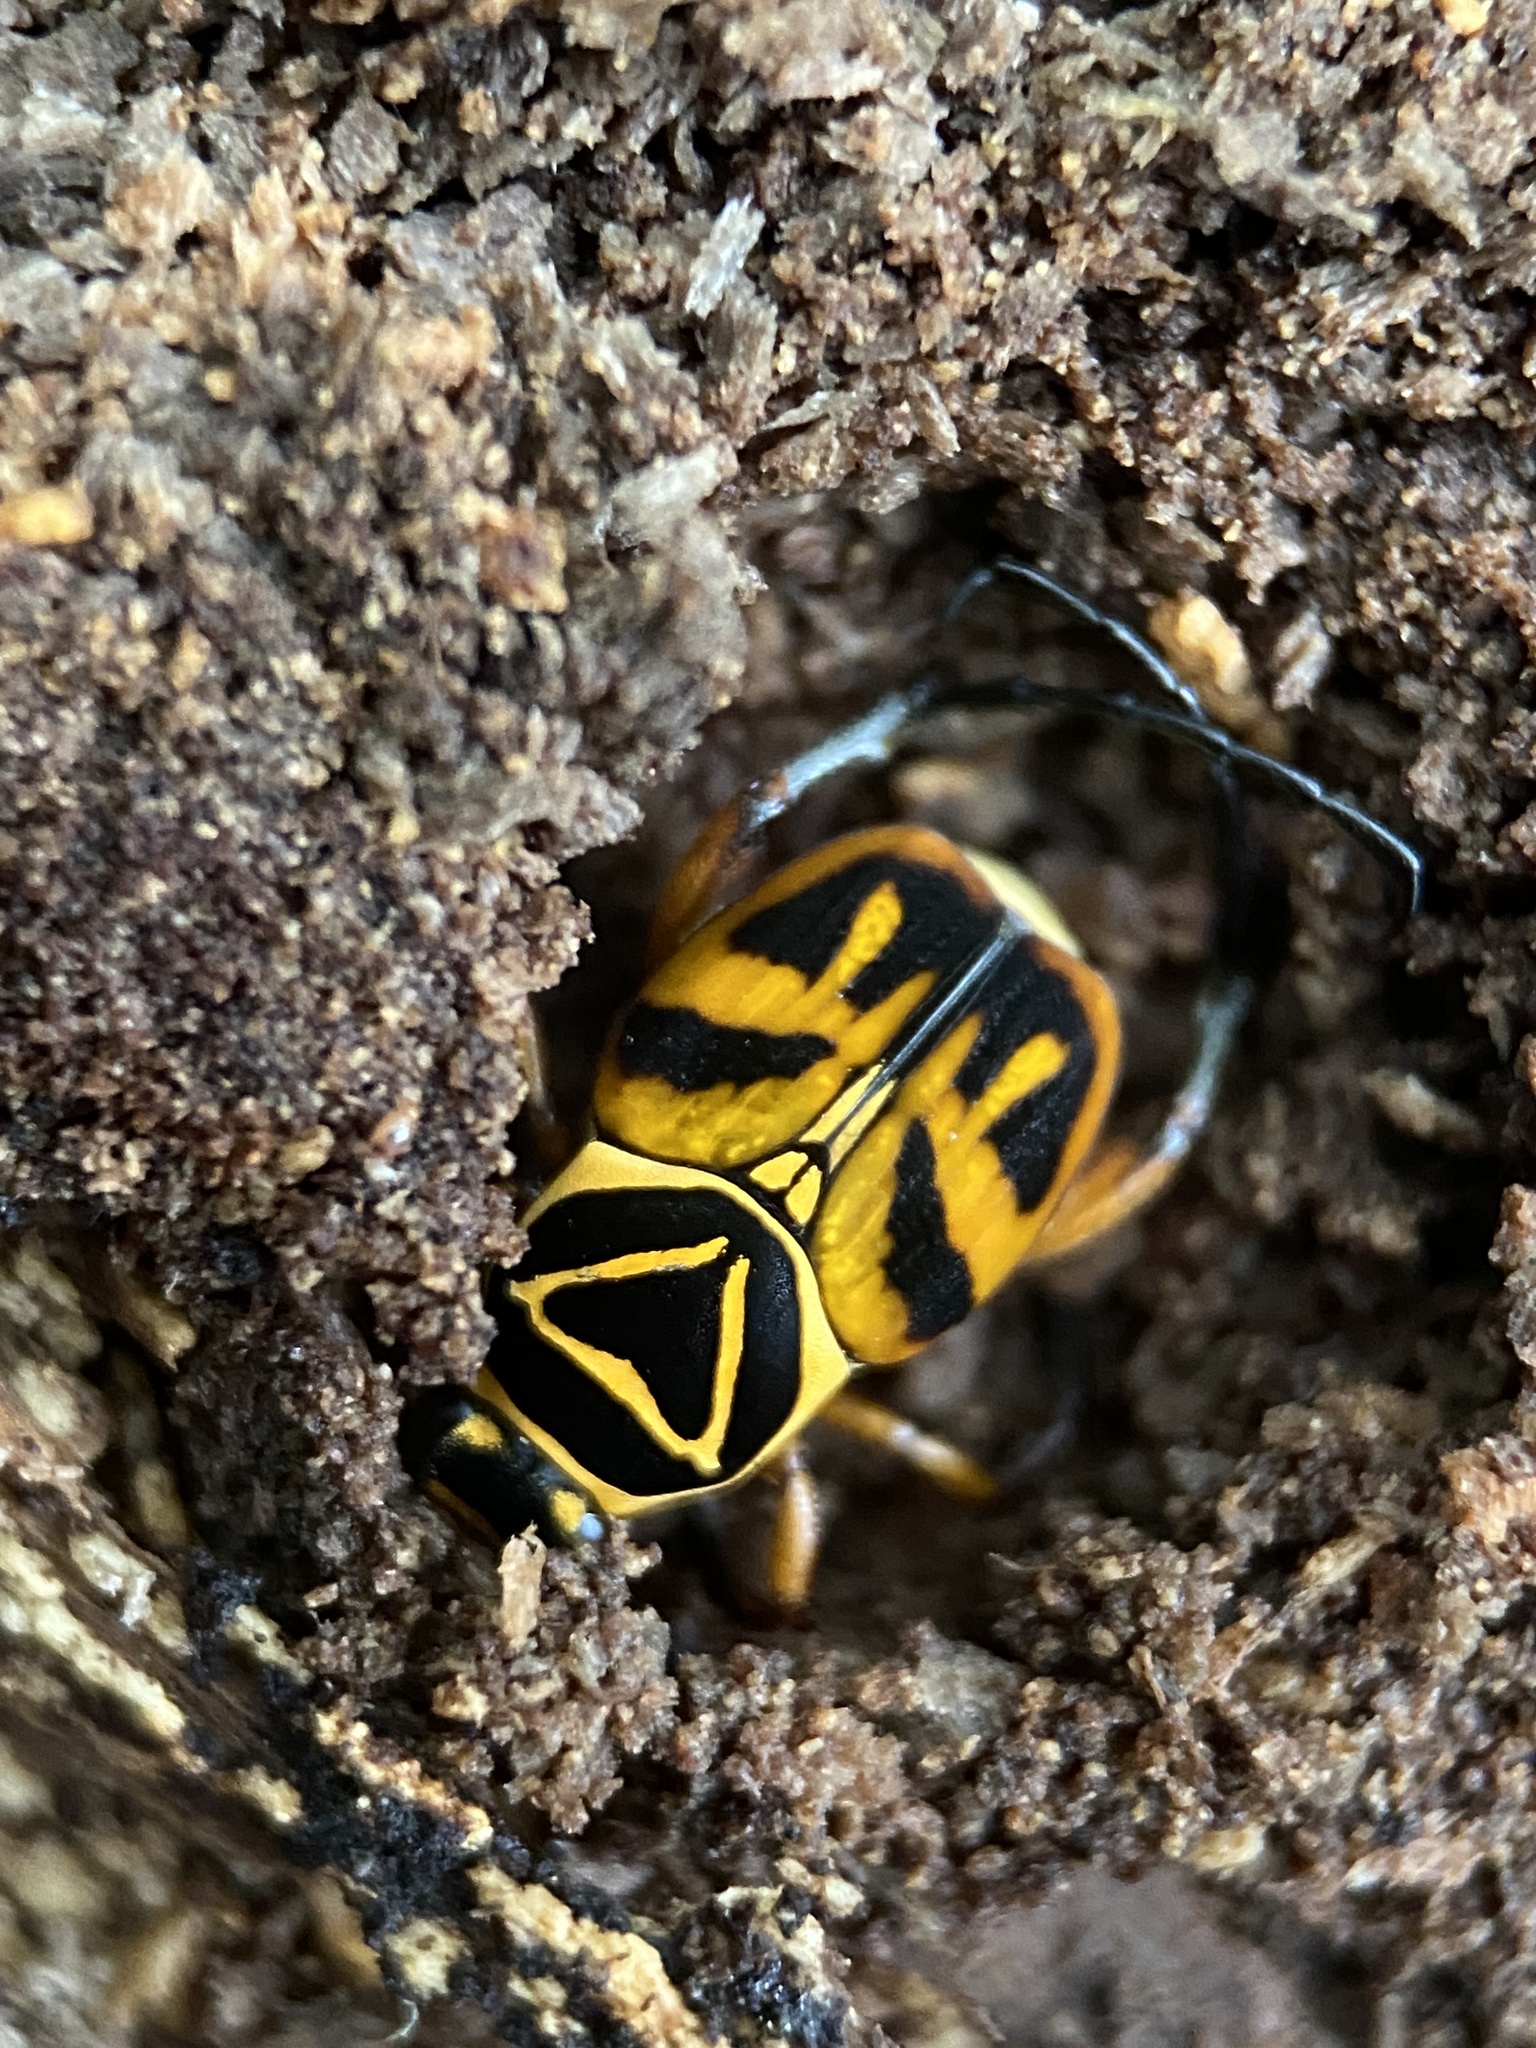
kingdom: Animalia
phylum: Arthropoda
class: Insecta
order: Coleoptera
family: Scarabaeidae
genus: Trigonopeltastes
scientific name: Trigonopeltastes delta
